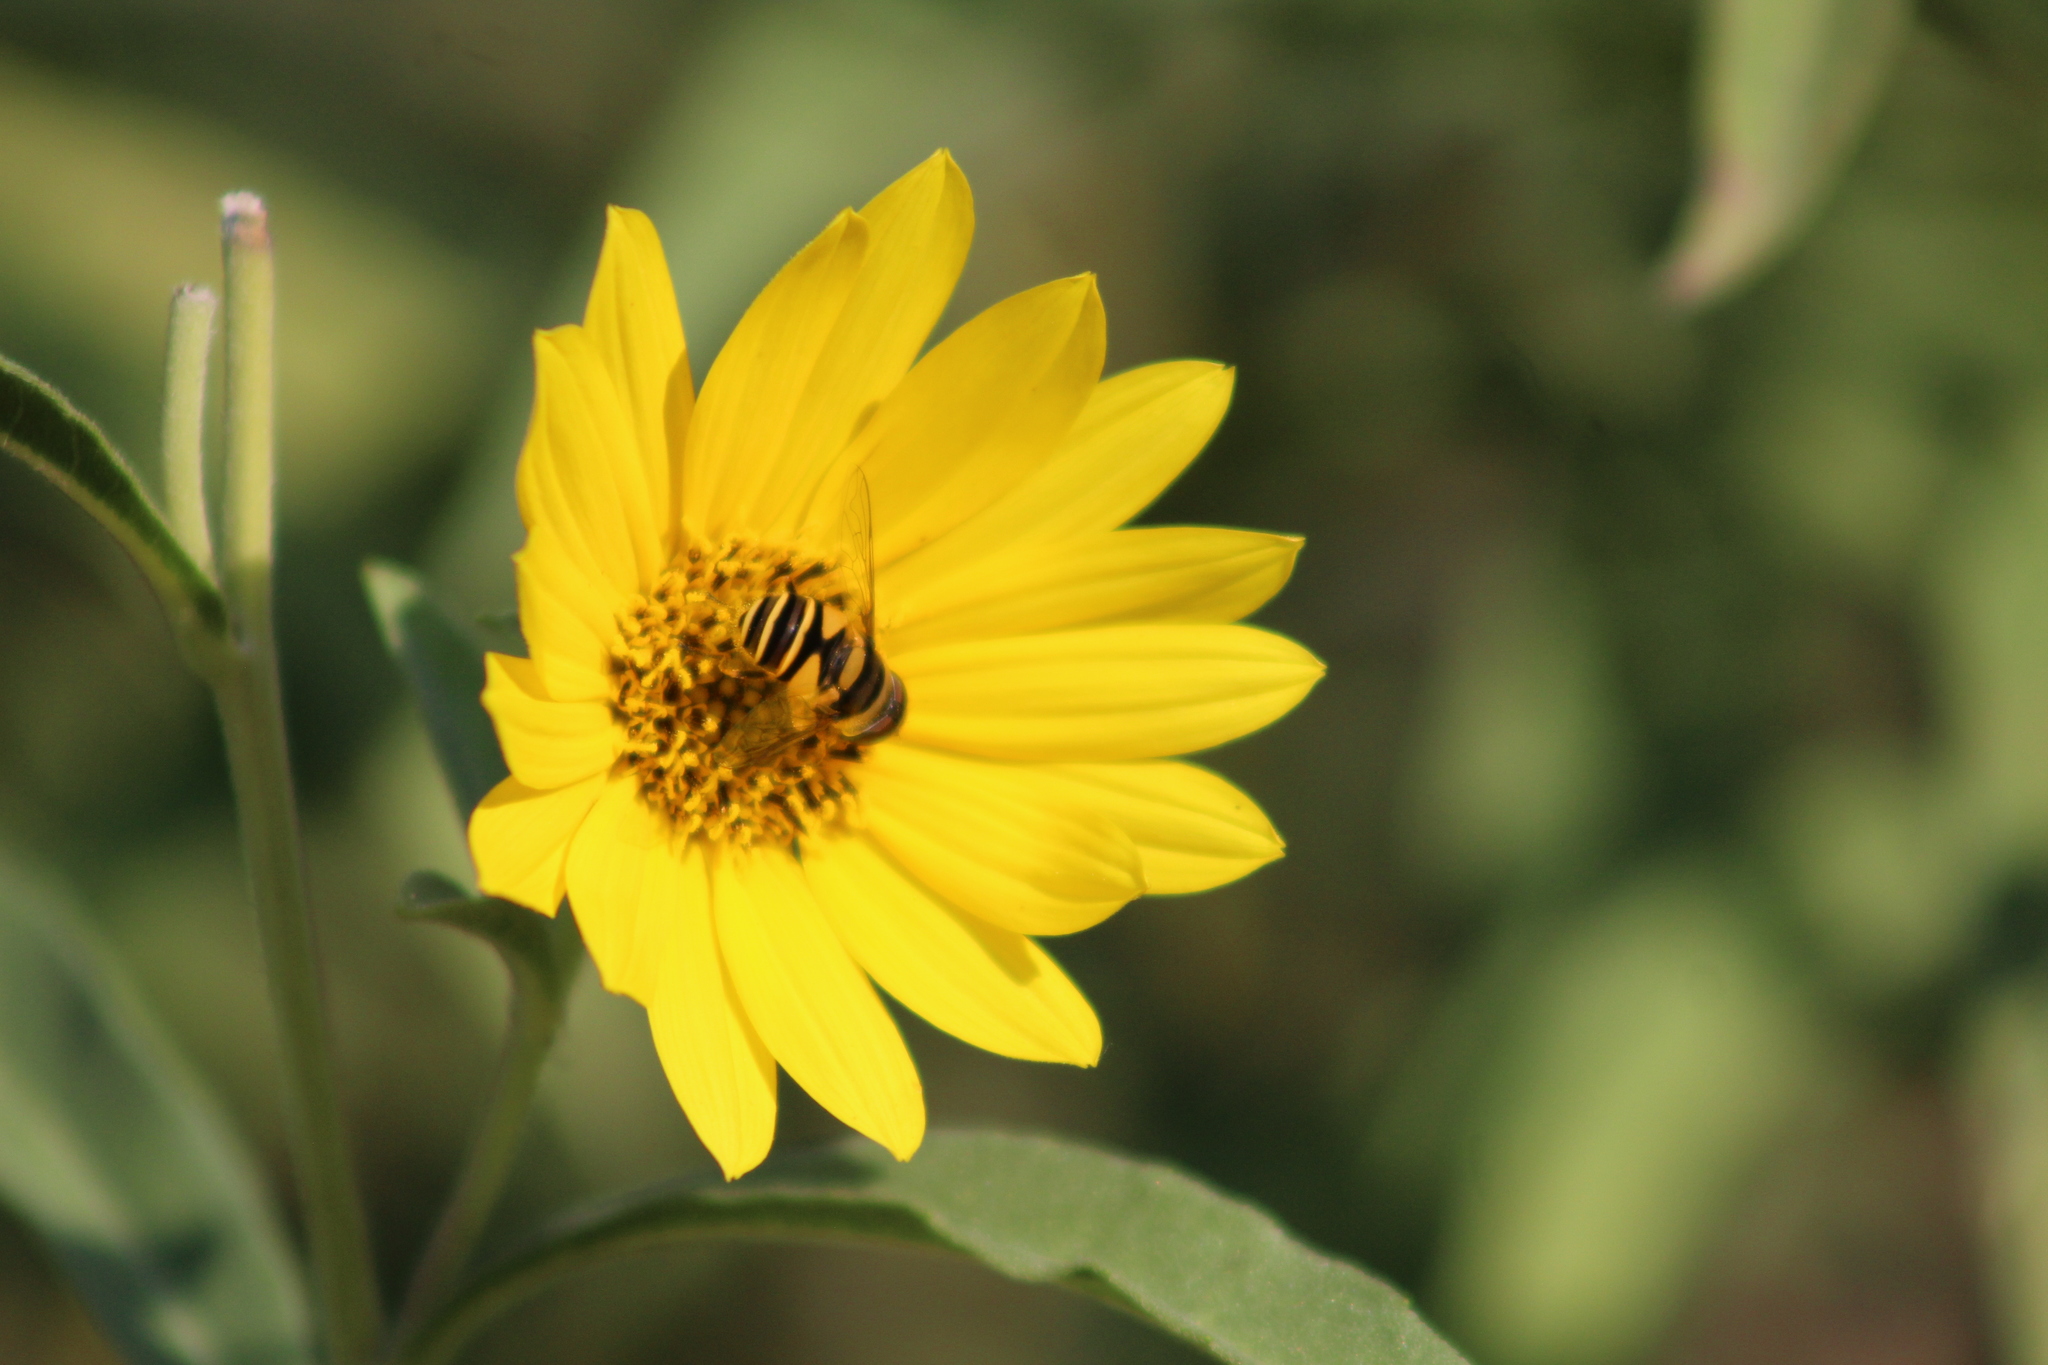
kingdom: Animalia
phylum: Arthropoda
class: Insecta
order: Diptera
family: Syrphidae
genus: Eristalis
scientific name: Eristalis transversa
